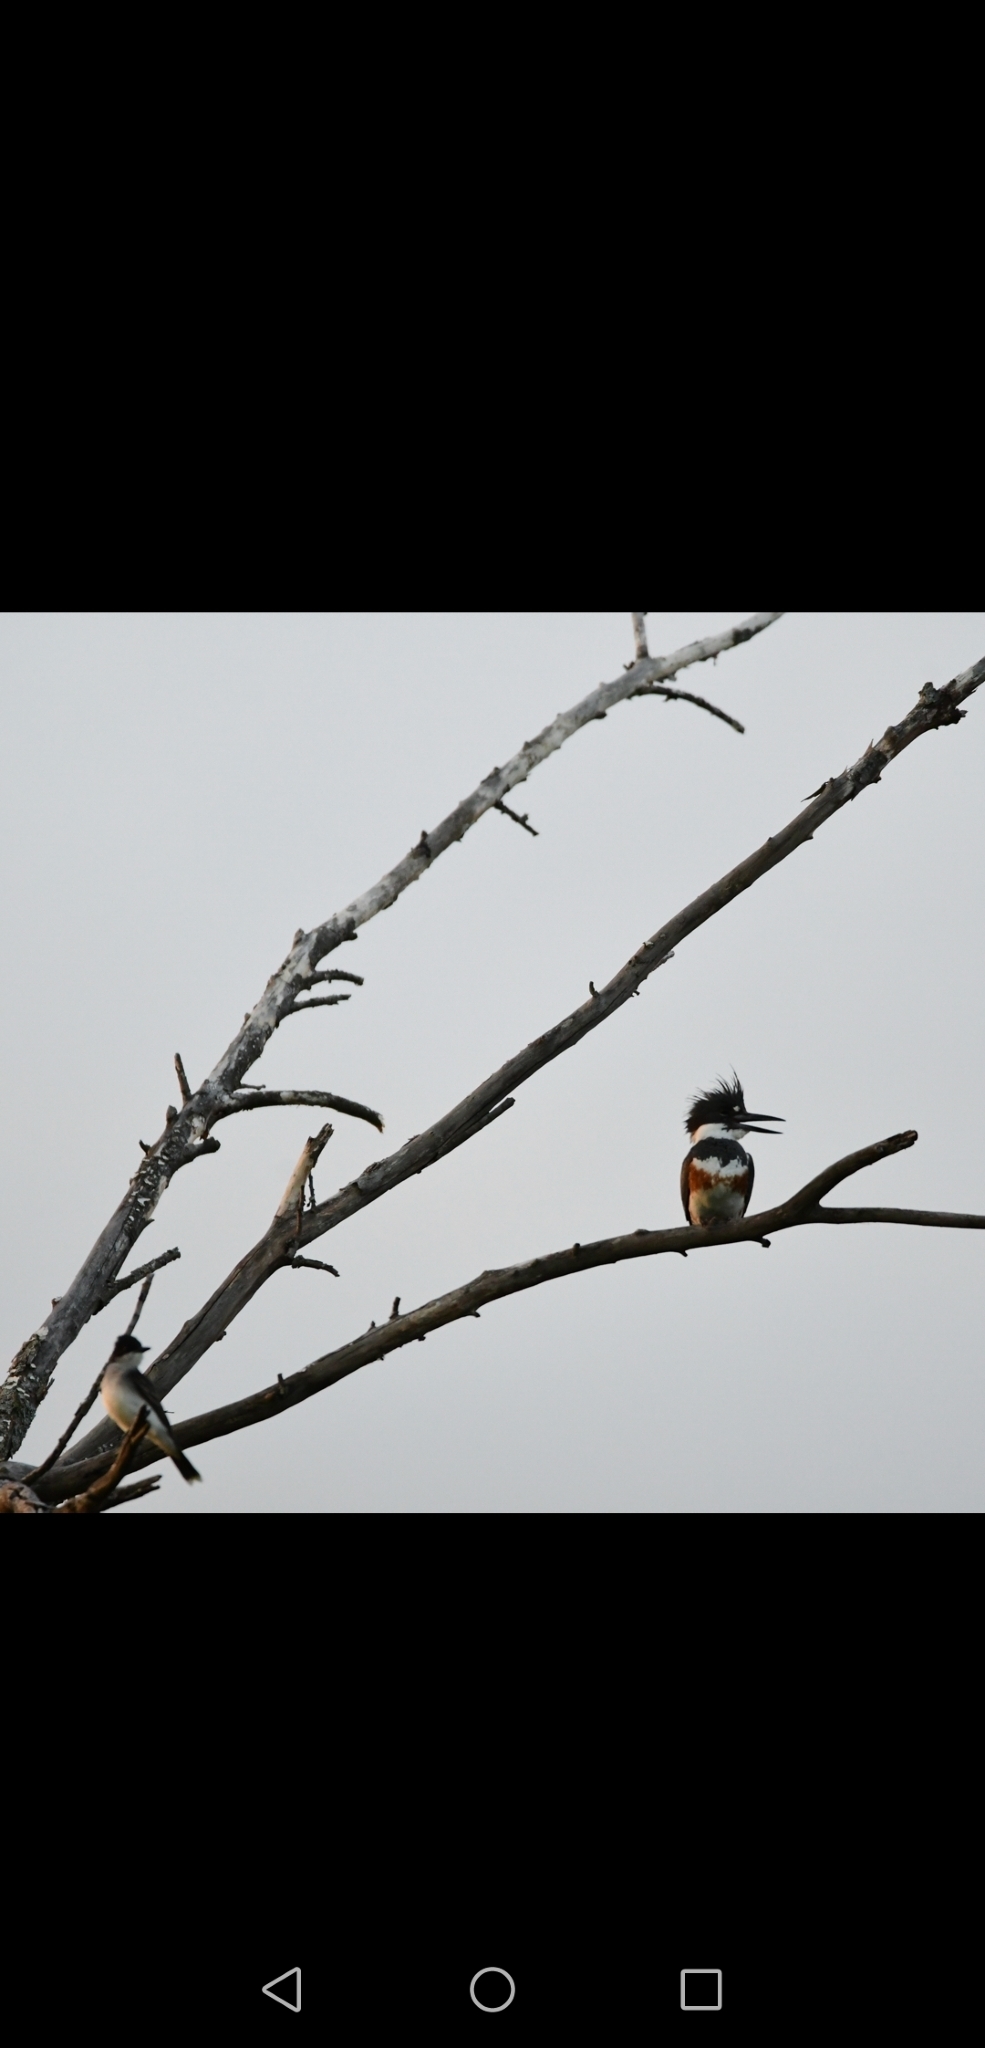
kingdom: Animalia
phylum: Chordata
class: Aves
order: Coraciiformes
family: Alcedinidae
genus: Megaceryle
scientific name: Megaceryle alcyon
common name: Belted kingfisher
